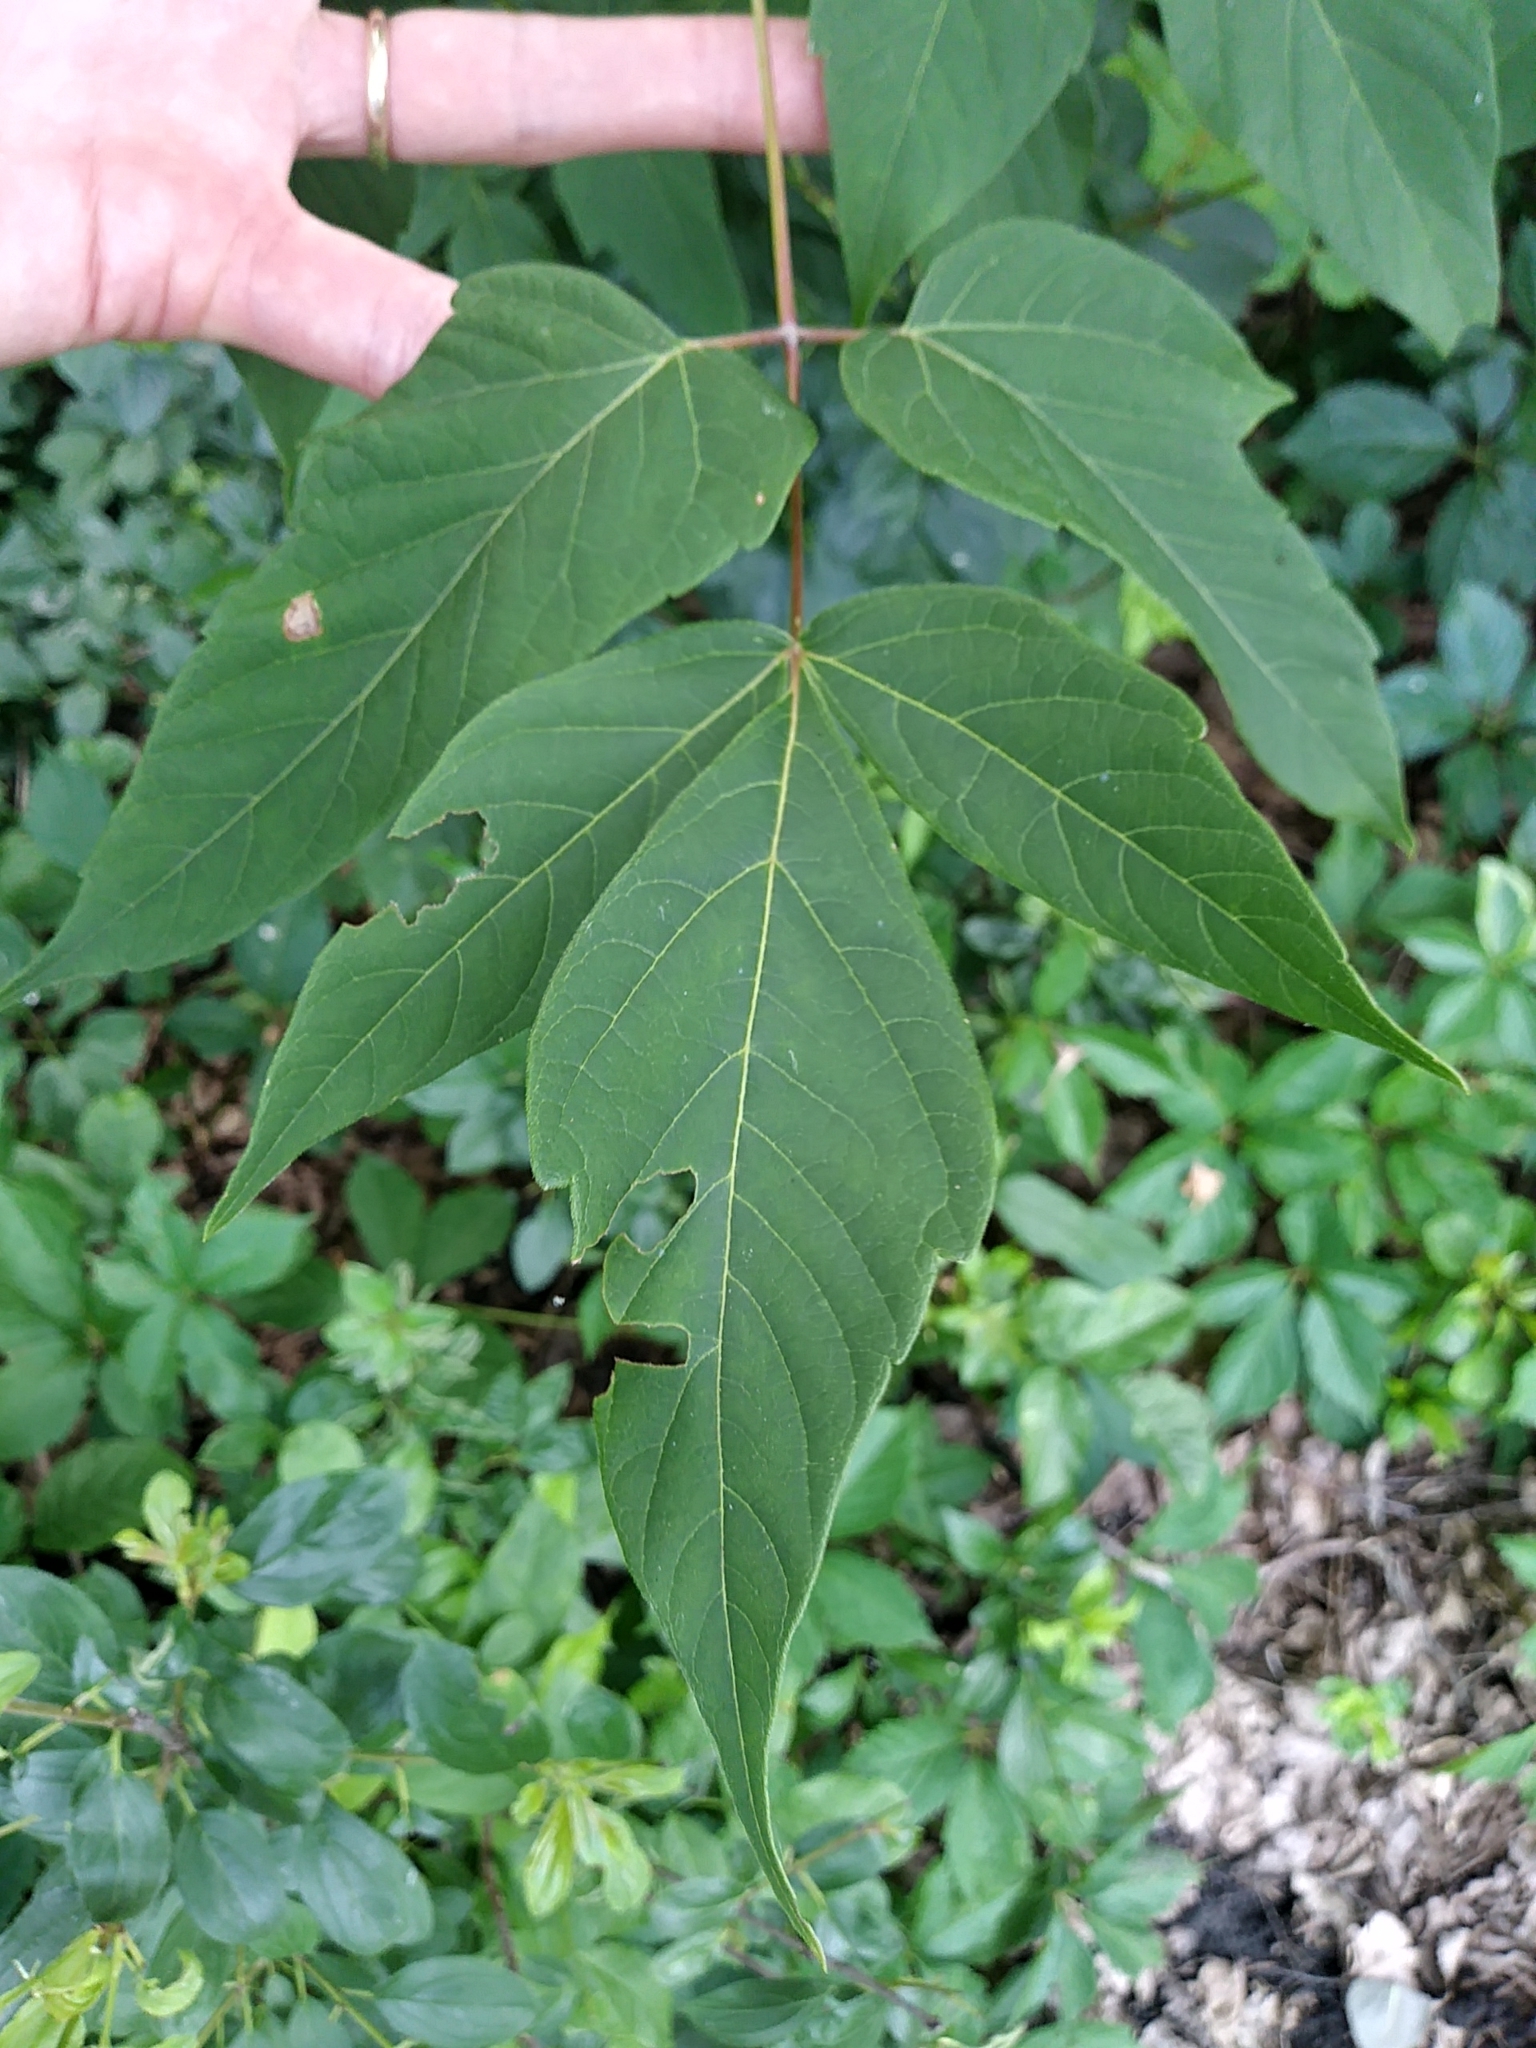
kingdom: Plantae
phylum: Tracheophyta
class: Magnoliopsida
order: Sapindales
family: Sapindaceae
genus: Acer
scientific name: Acer negundo
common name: Ashleaf maple
